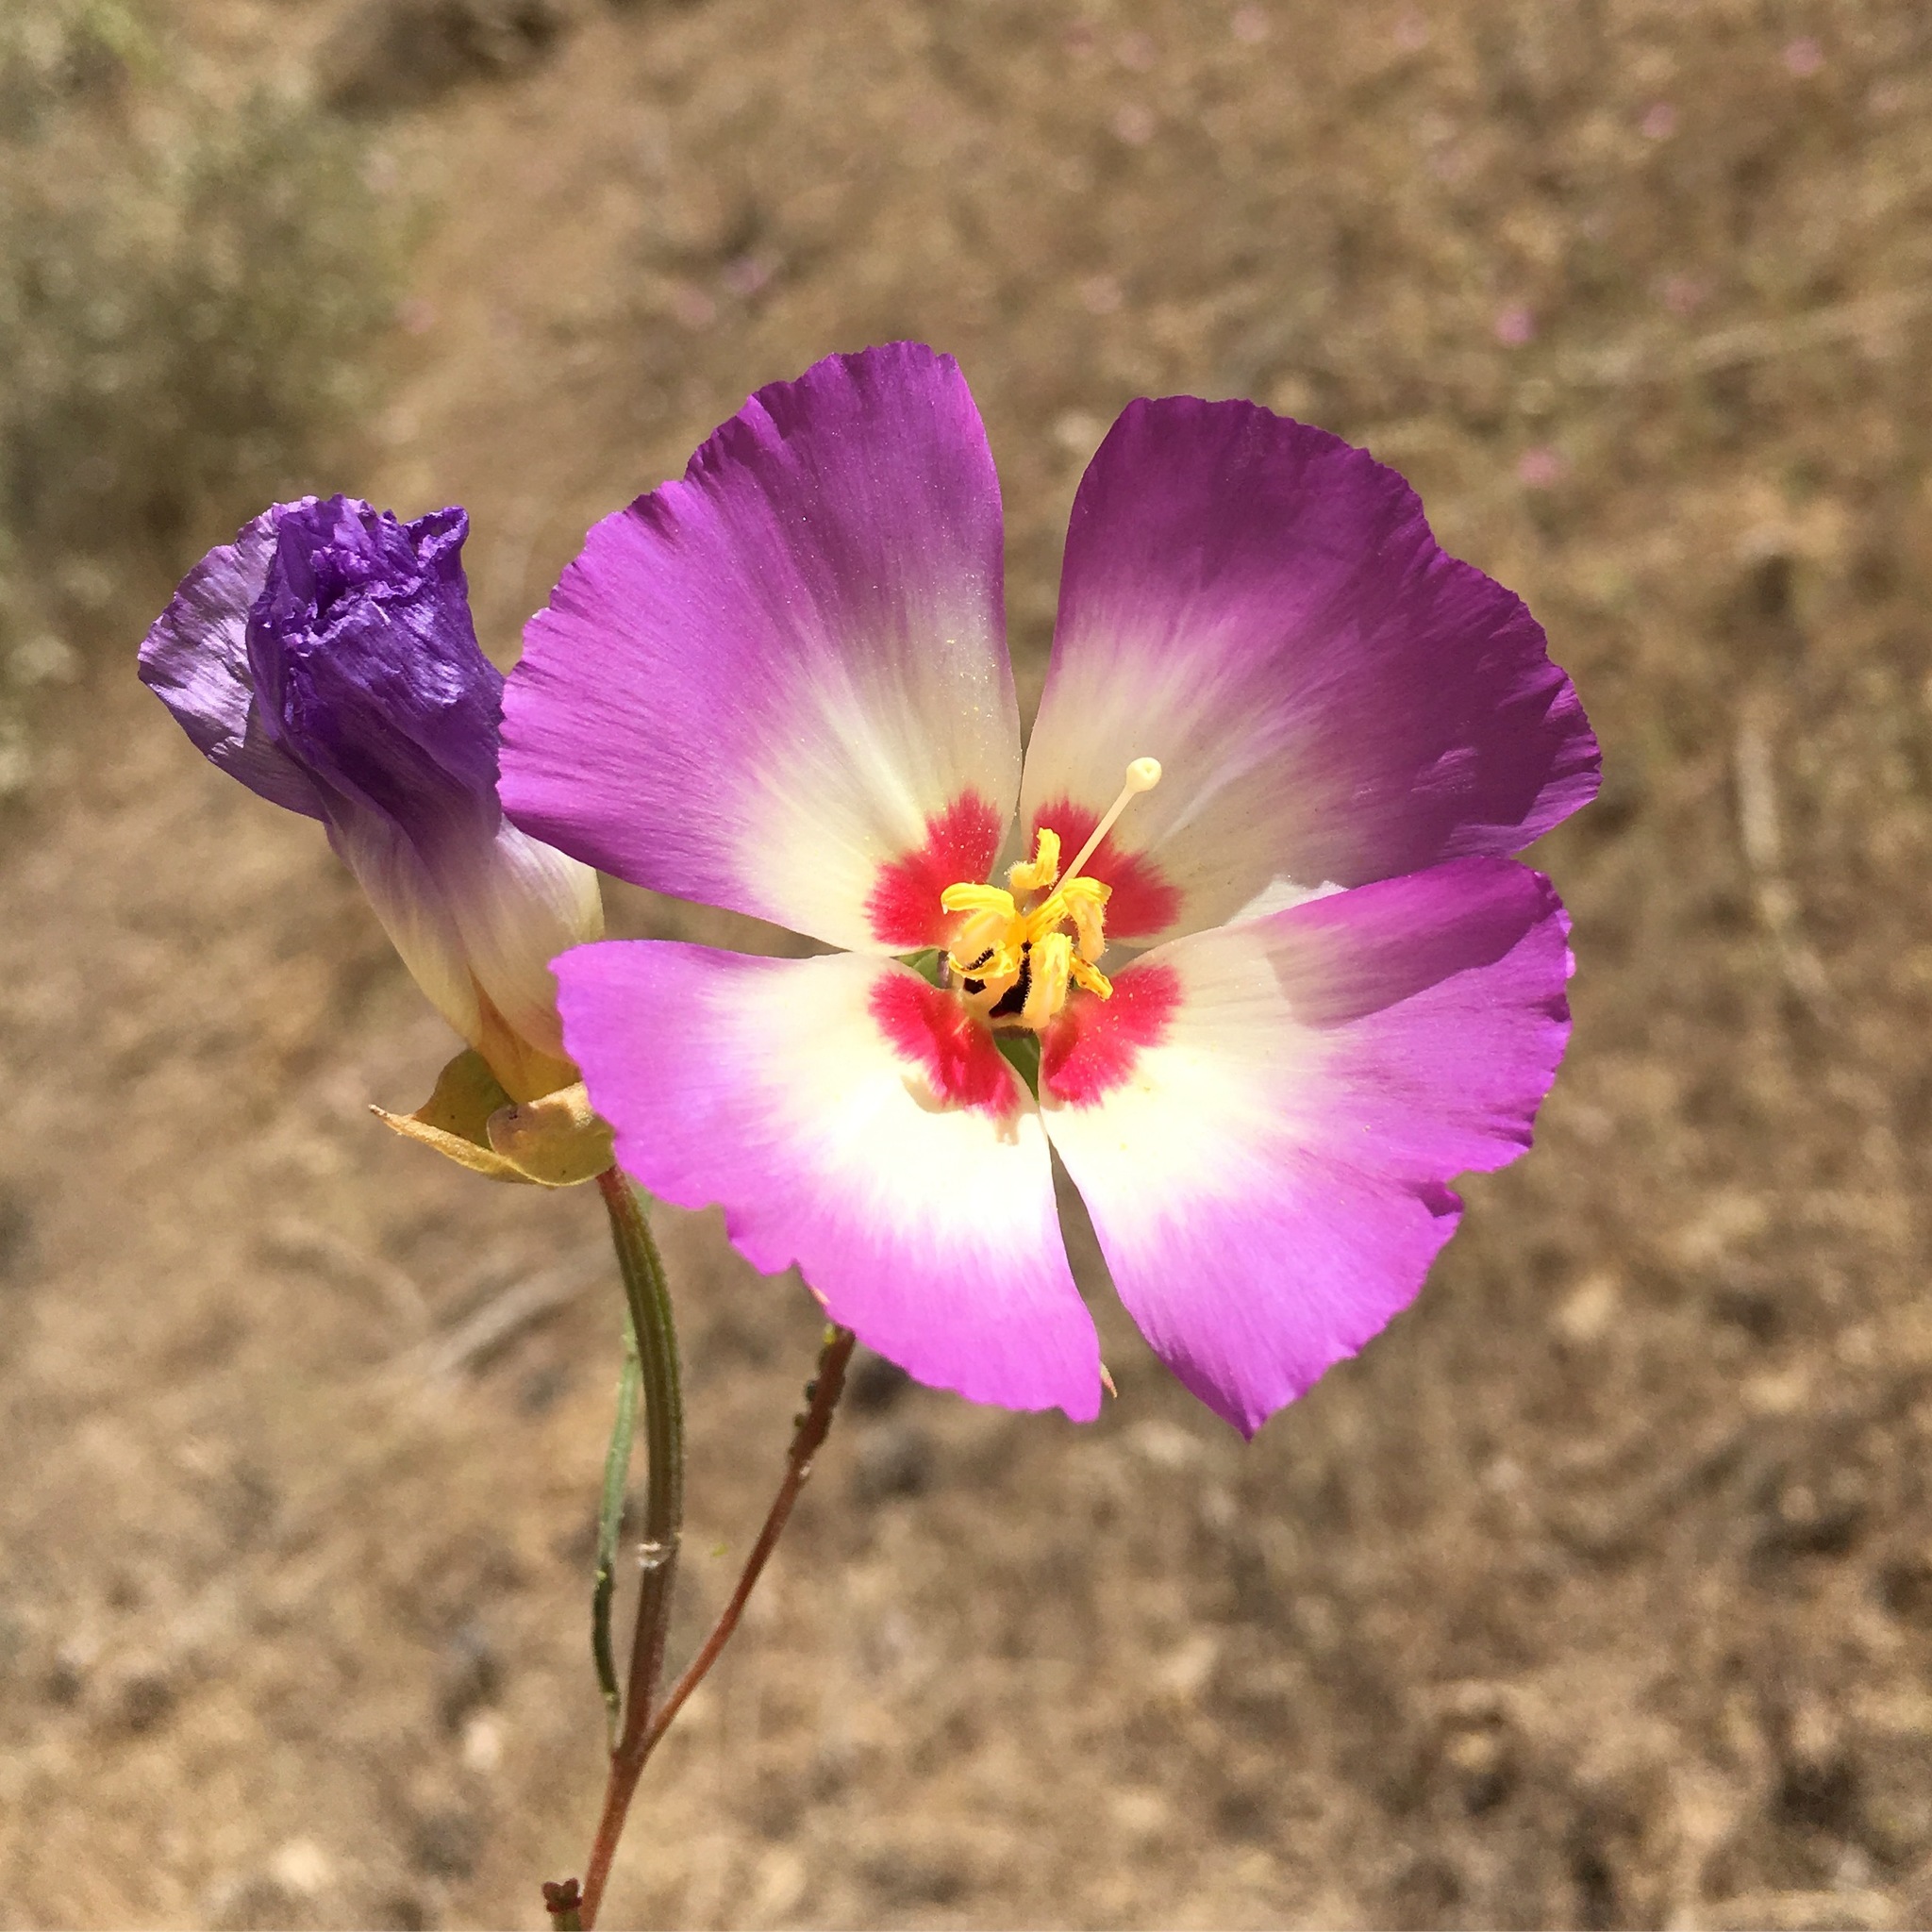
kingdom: Plantae
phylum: Tracheophyta
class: Magnoliopsida
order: Myrtales
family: Onagraceae
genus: Clarkia
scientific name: Clarkia gracilis
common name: Graceful clarkia
